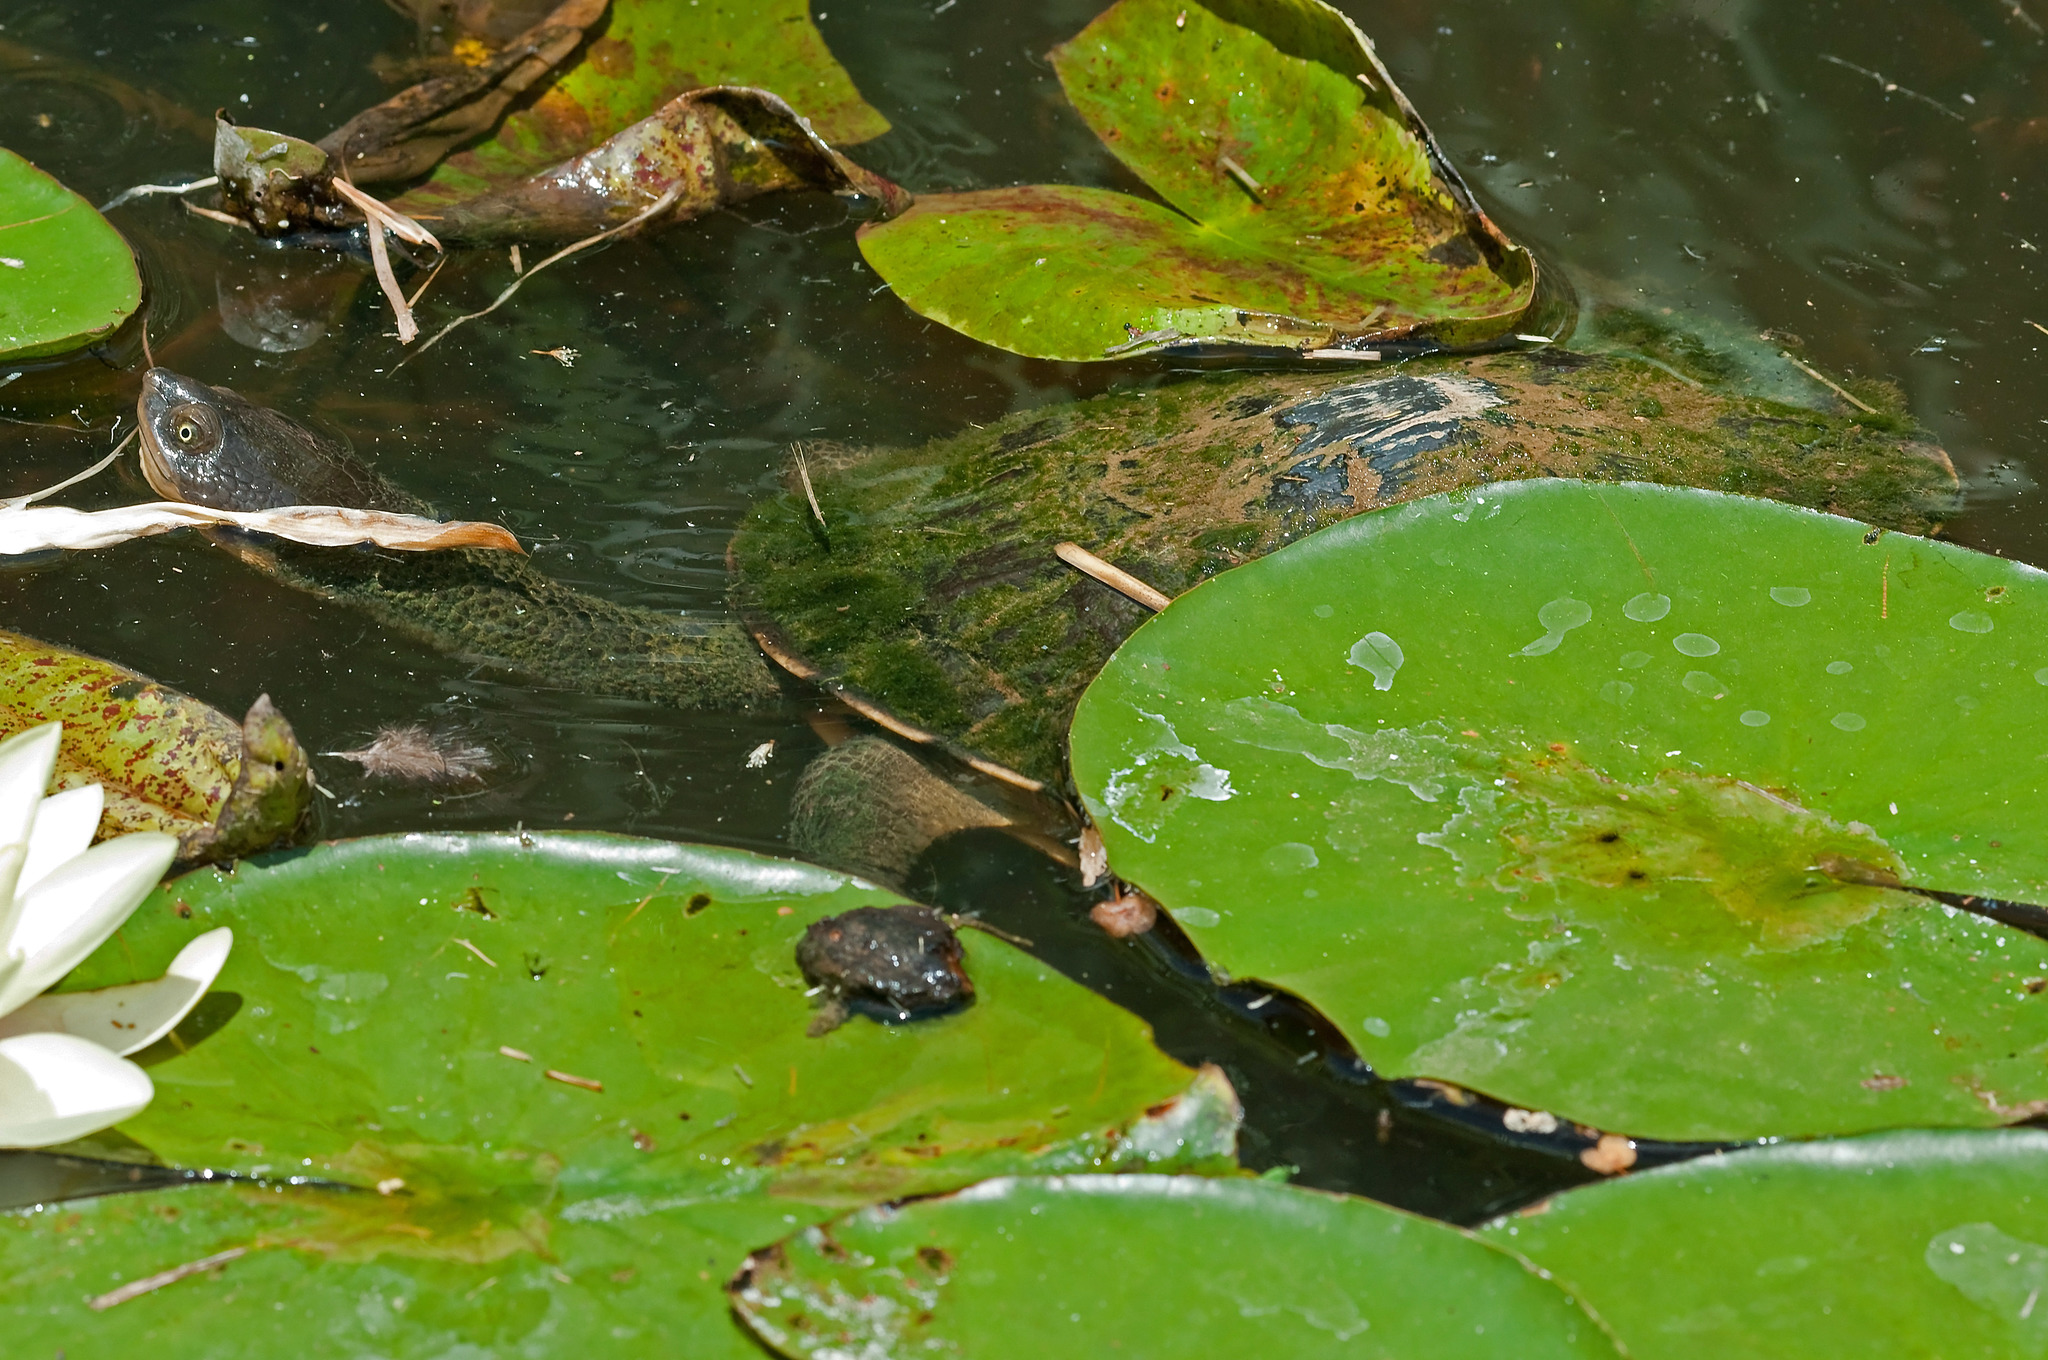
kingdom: Animalia
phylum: Chordata
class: Testudines
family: Chelidae
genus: Chelodina
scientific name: Chelodina longicollis
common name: Eastern snake-necked turtle
